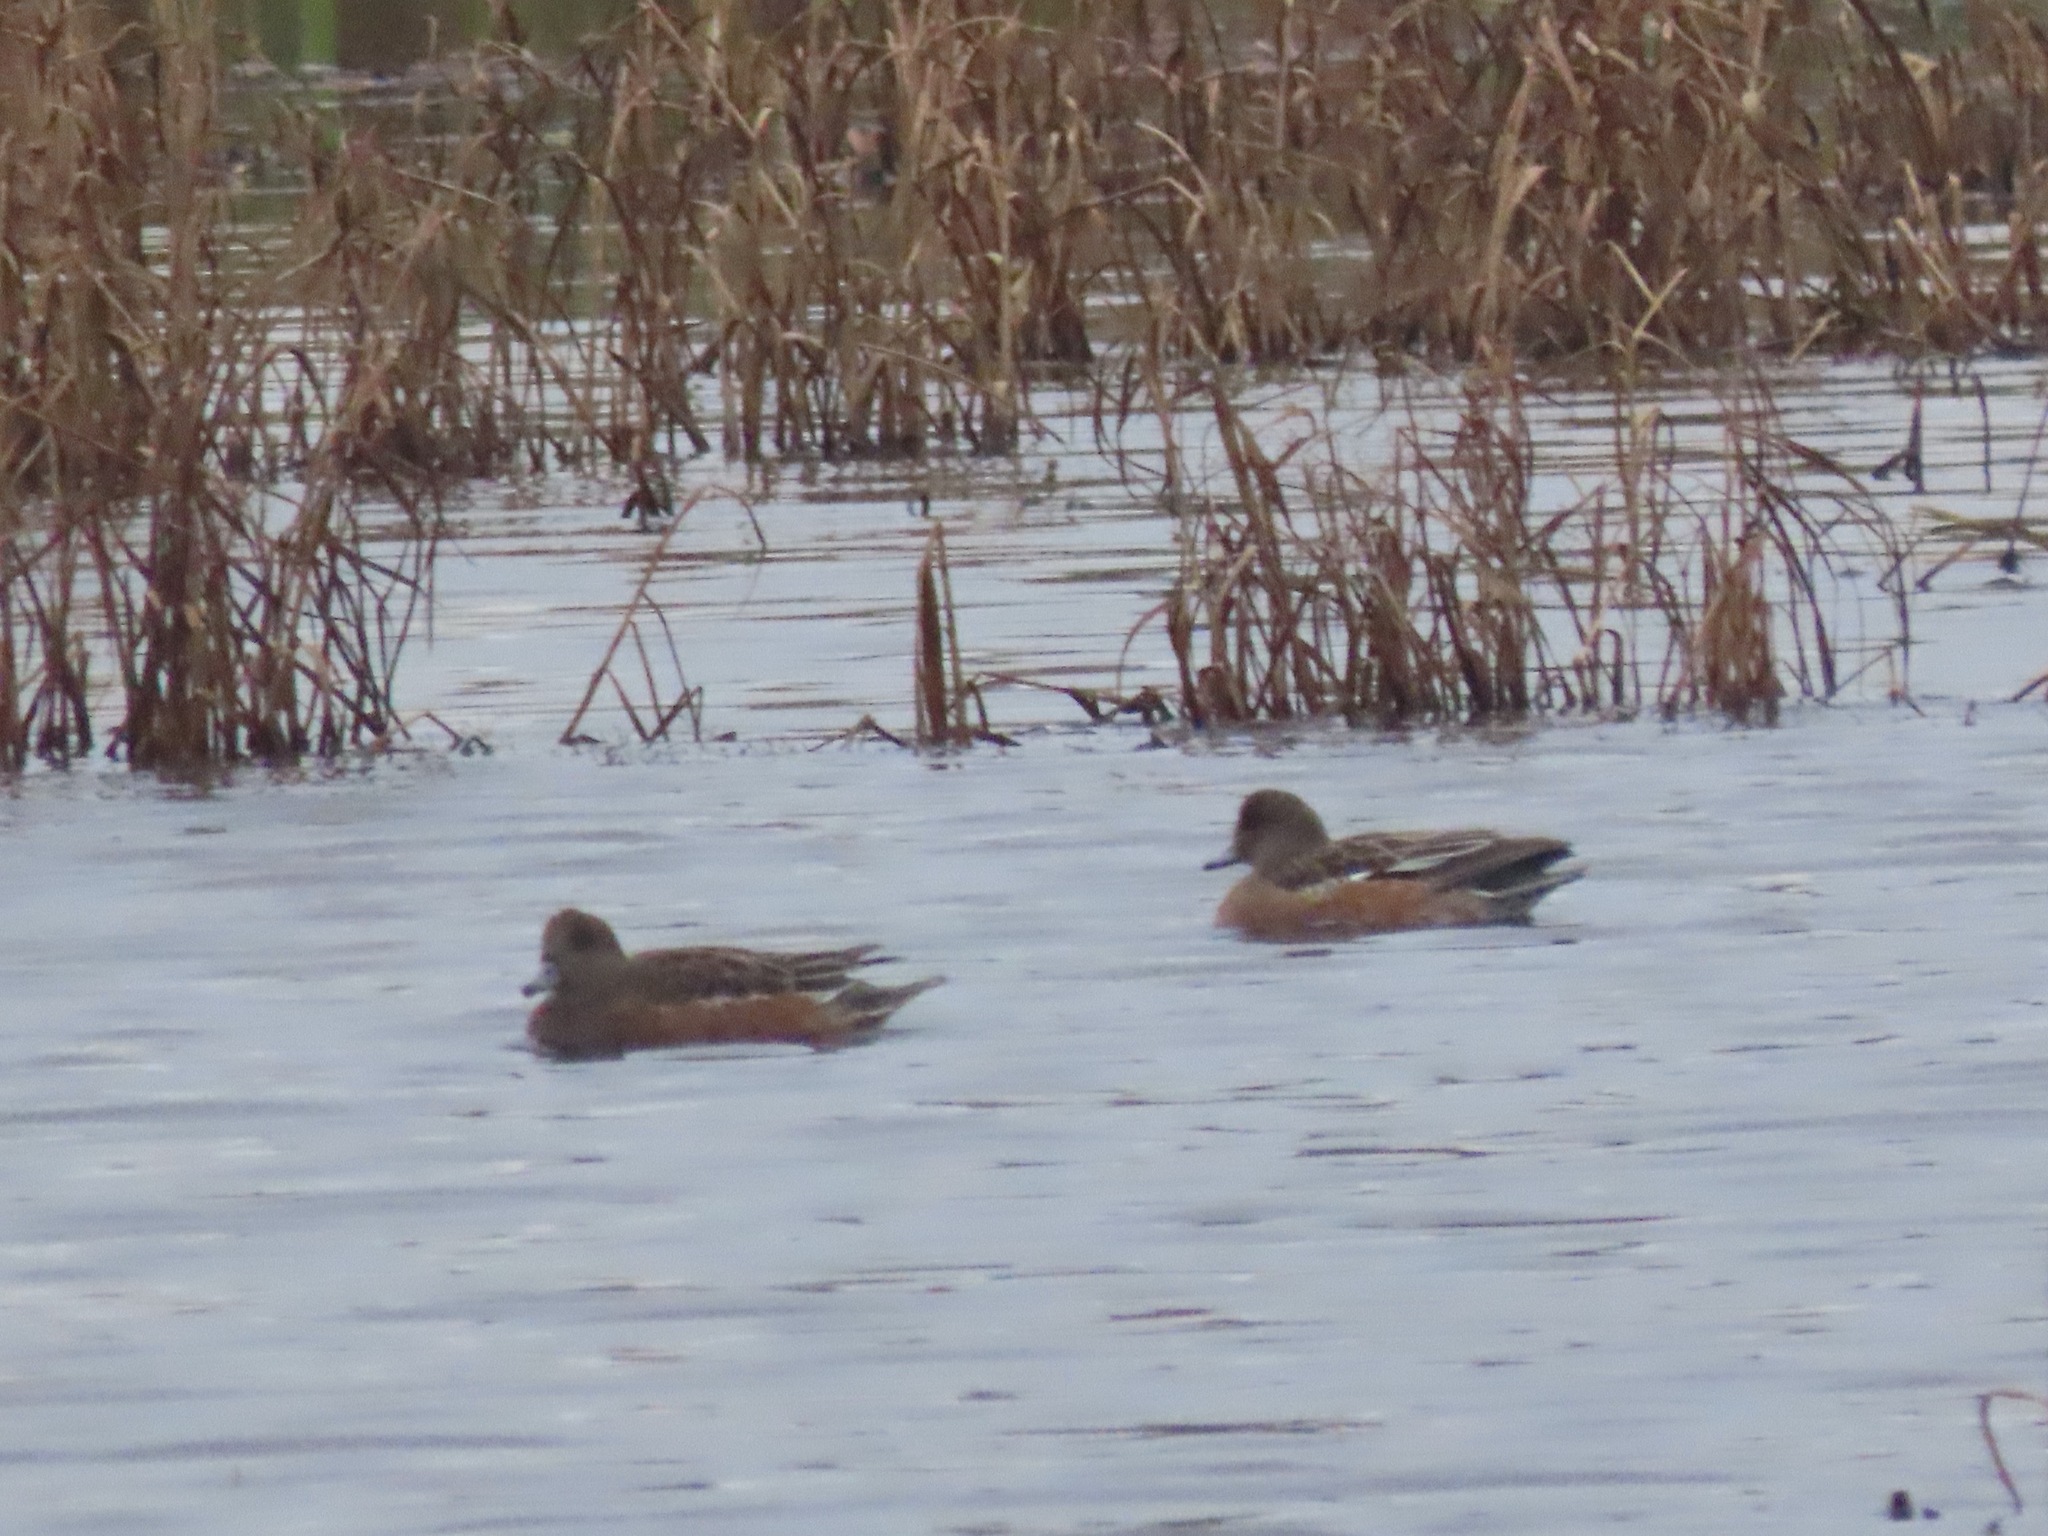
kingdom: Animalia
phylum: Chordata
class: Aves
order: Anseriformes
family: Anatidae
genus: Mareca
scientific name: Mareca americana
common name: American wigeon
